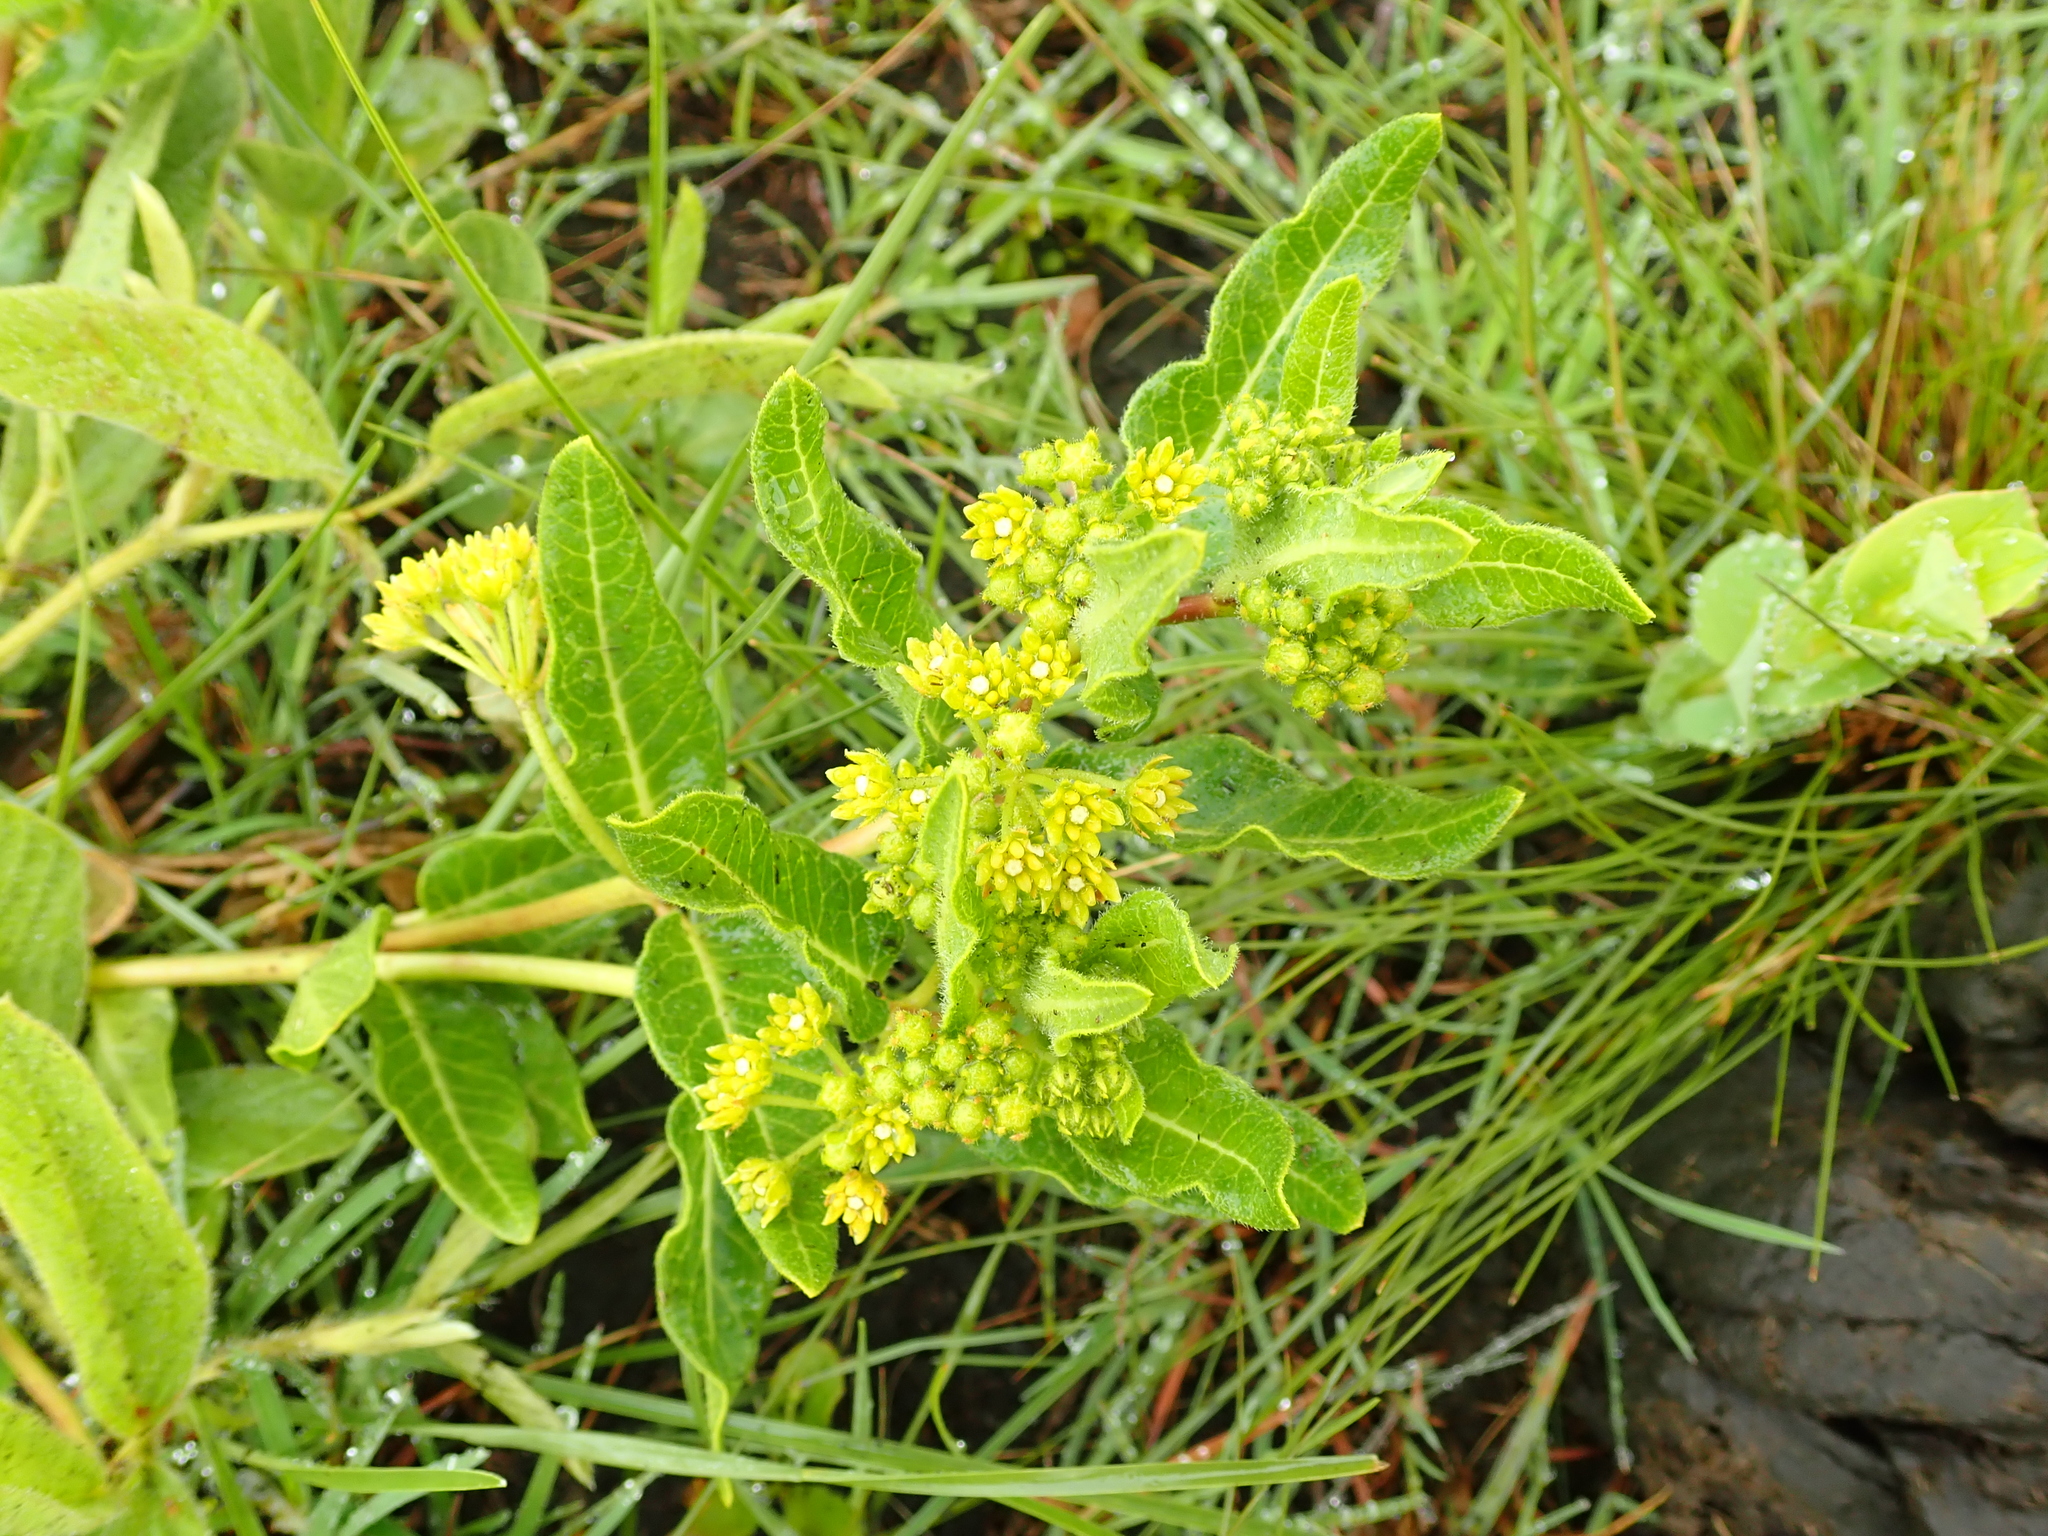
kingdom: Plantae
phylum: Tracheophyta
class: Magnoliopsida
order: Gentianales
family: Apocynaceae
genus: Xysmalobium
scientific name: Xysmalobium tysonianum
